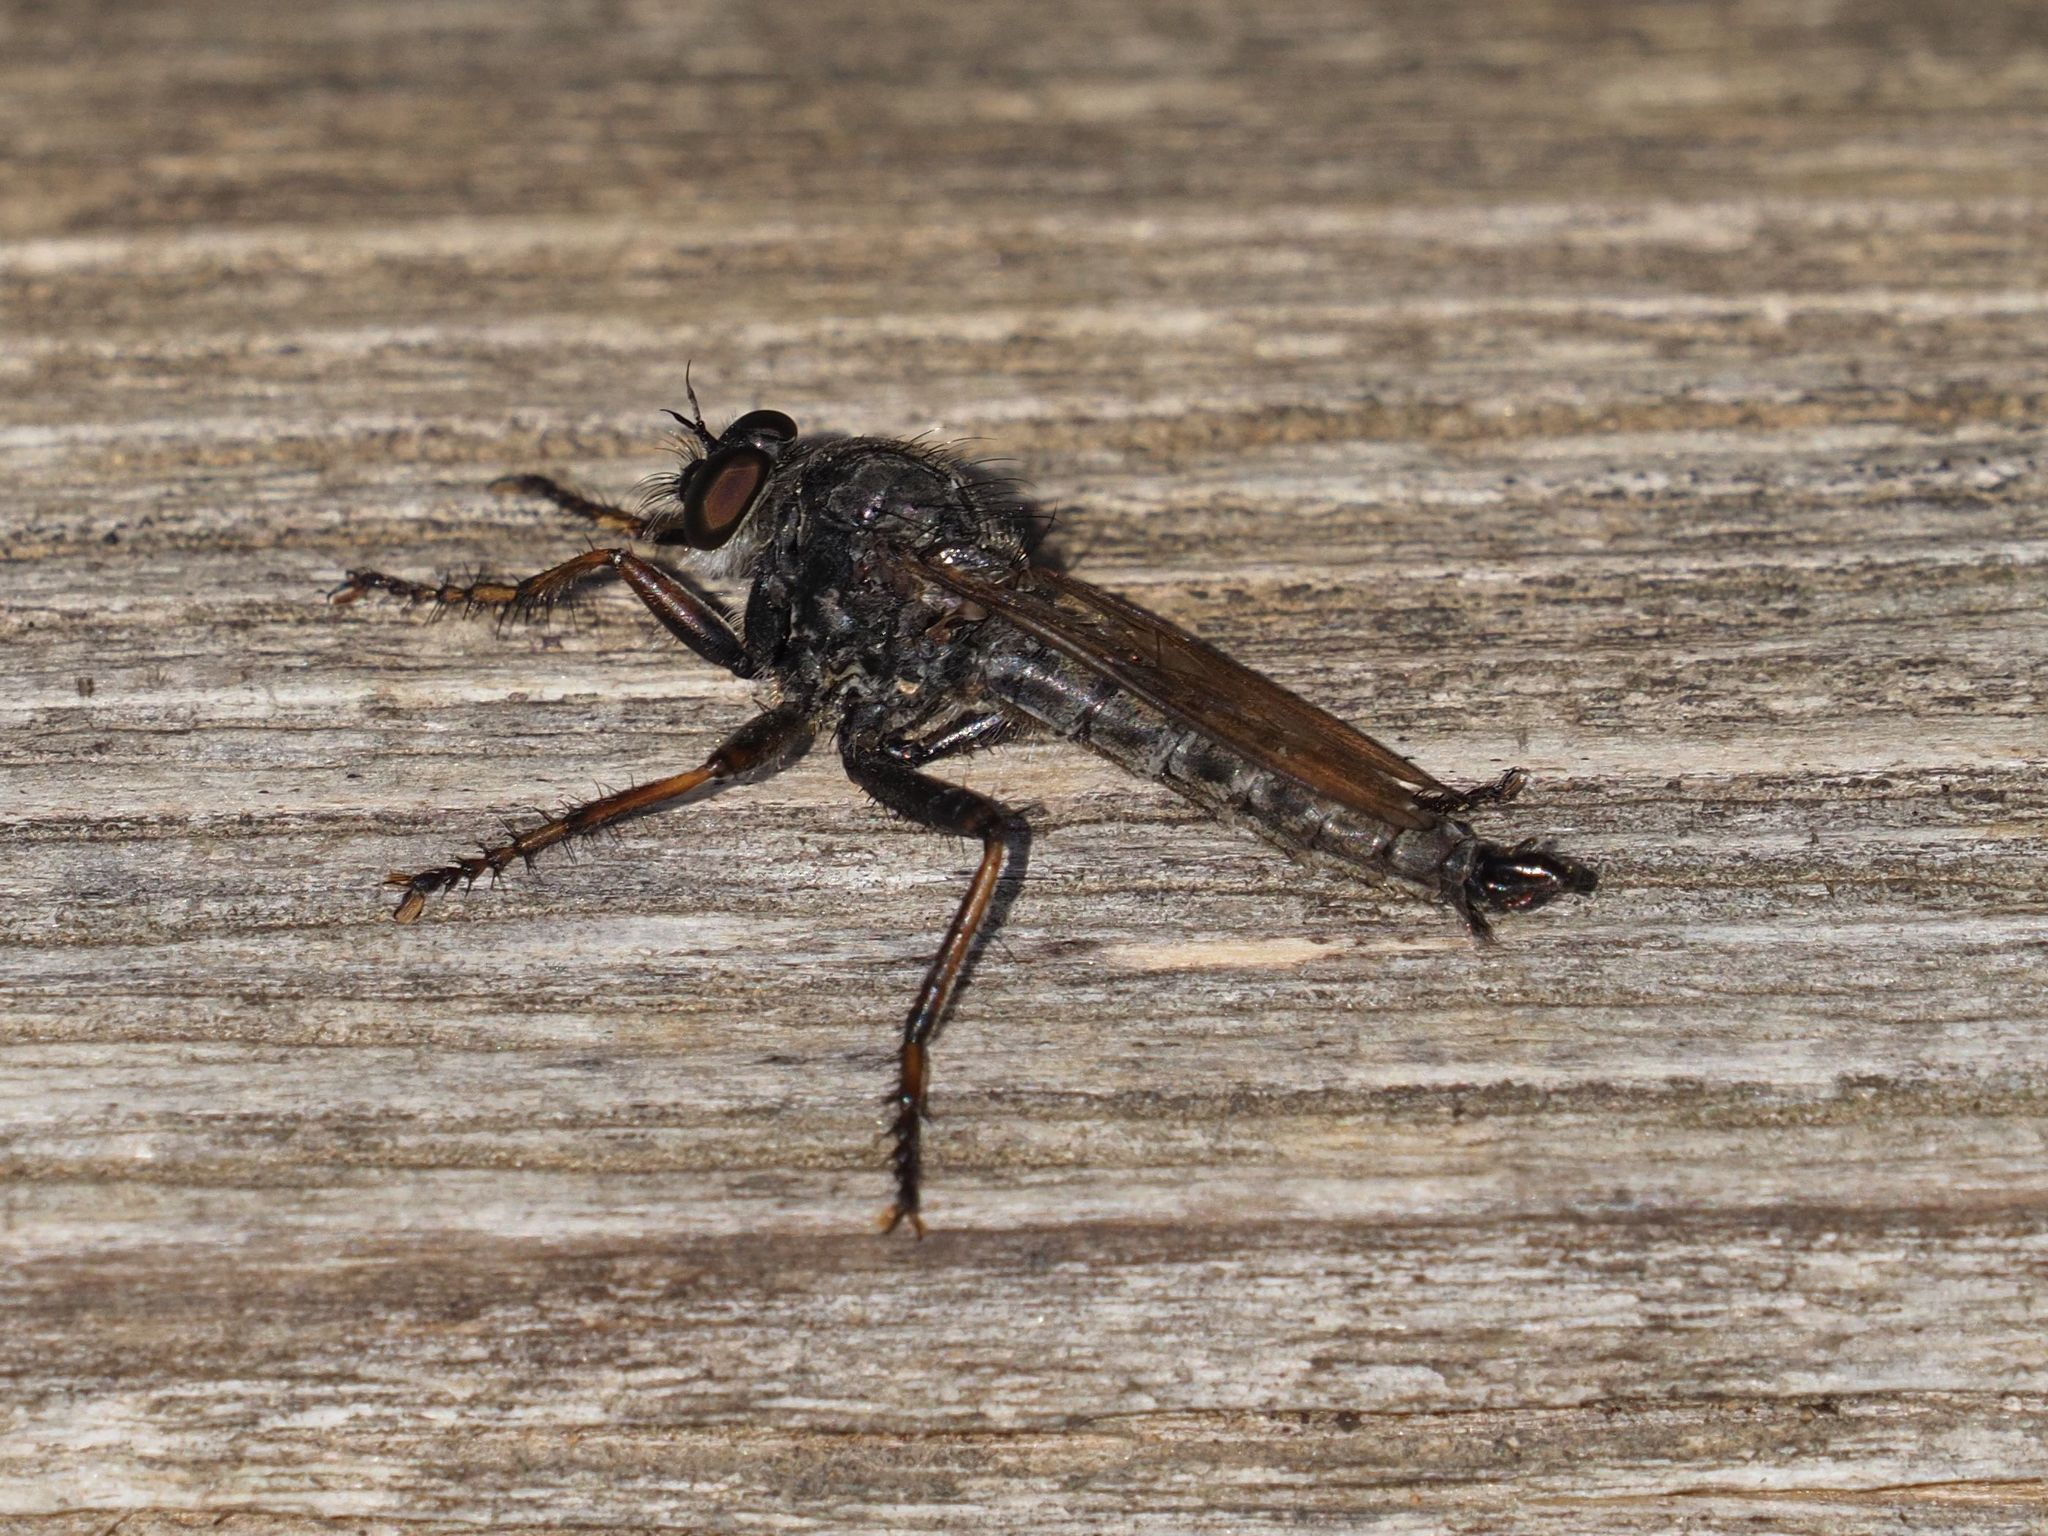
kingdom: Animalia
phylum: Arthropoda
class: Insecta
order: Diptera
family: Asilidae
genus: Machimus
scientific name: Machimus atricapillus
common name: Kite-tailed robberfly
